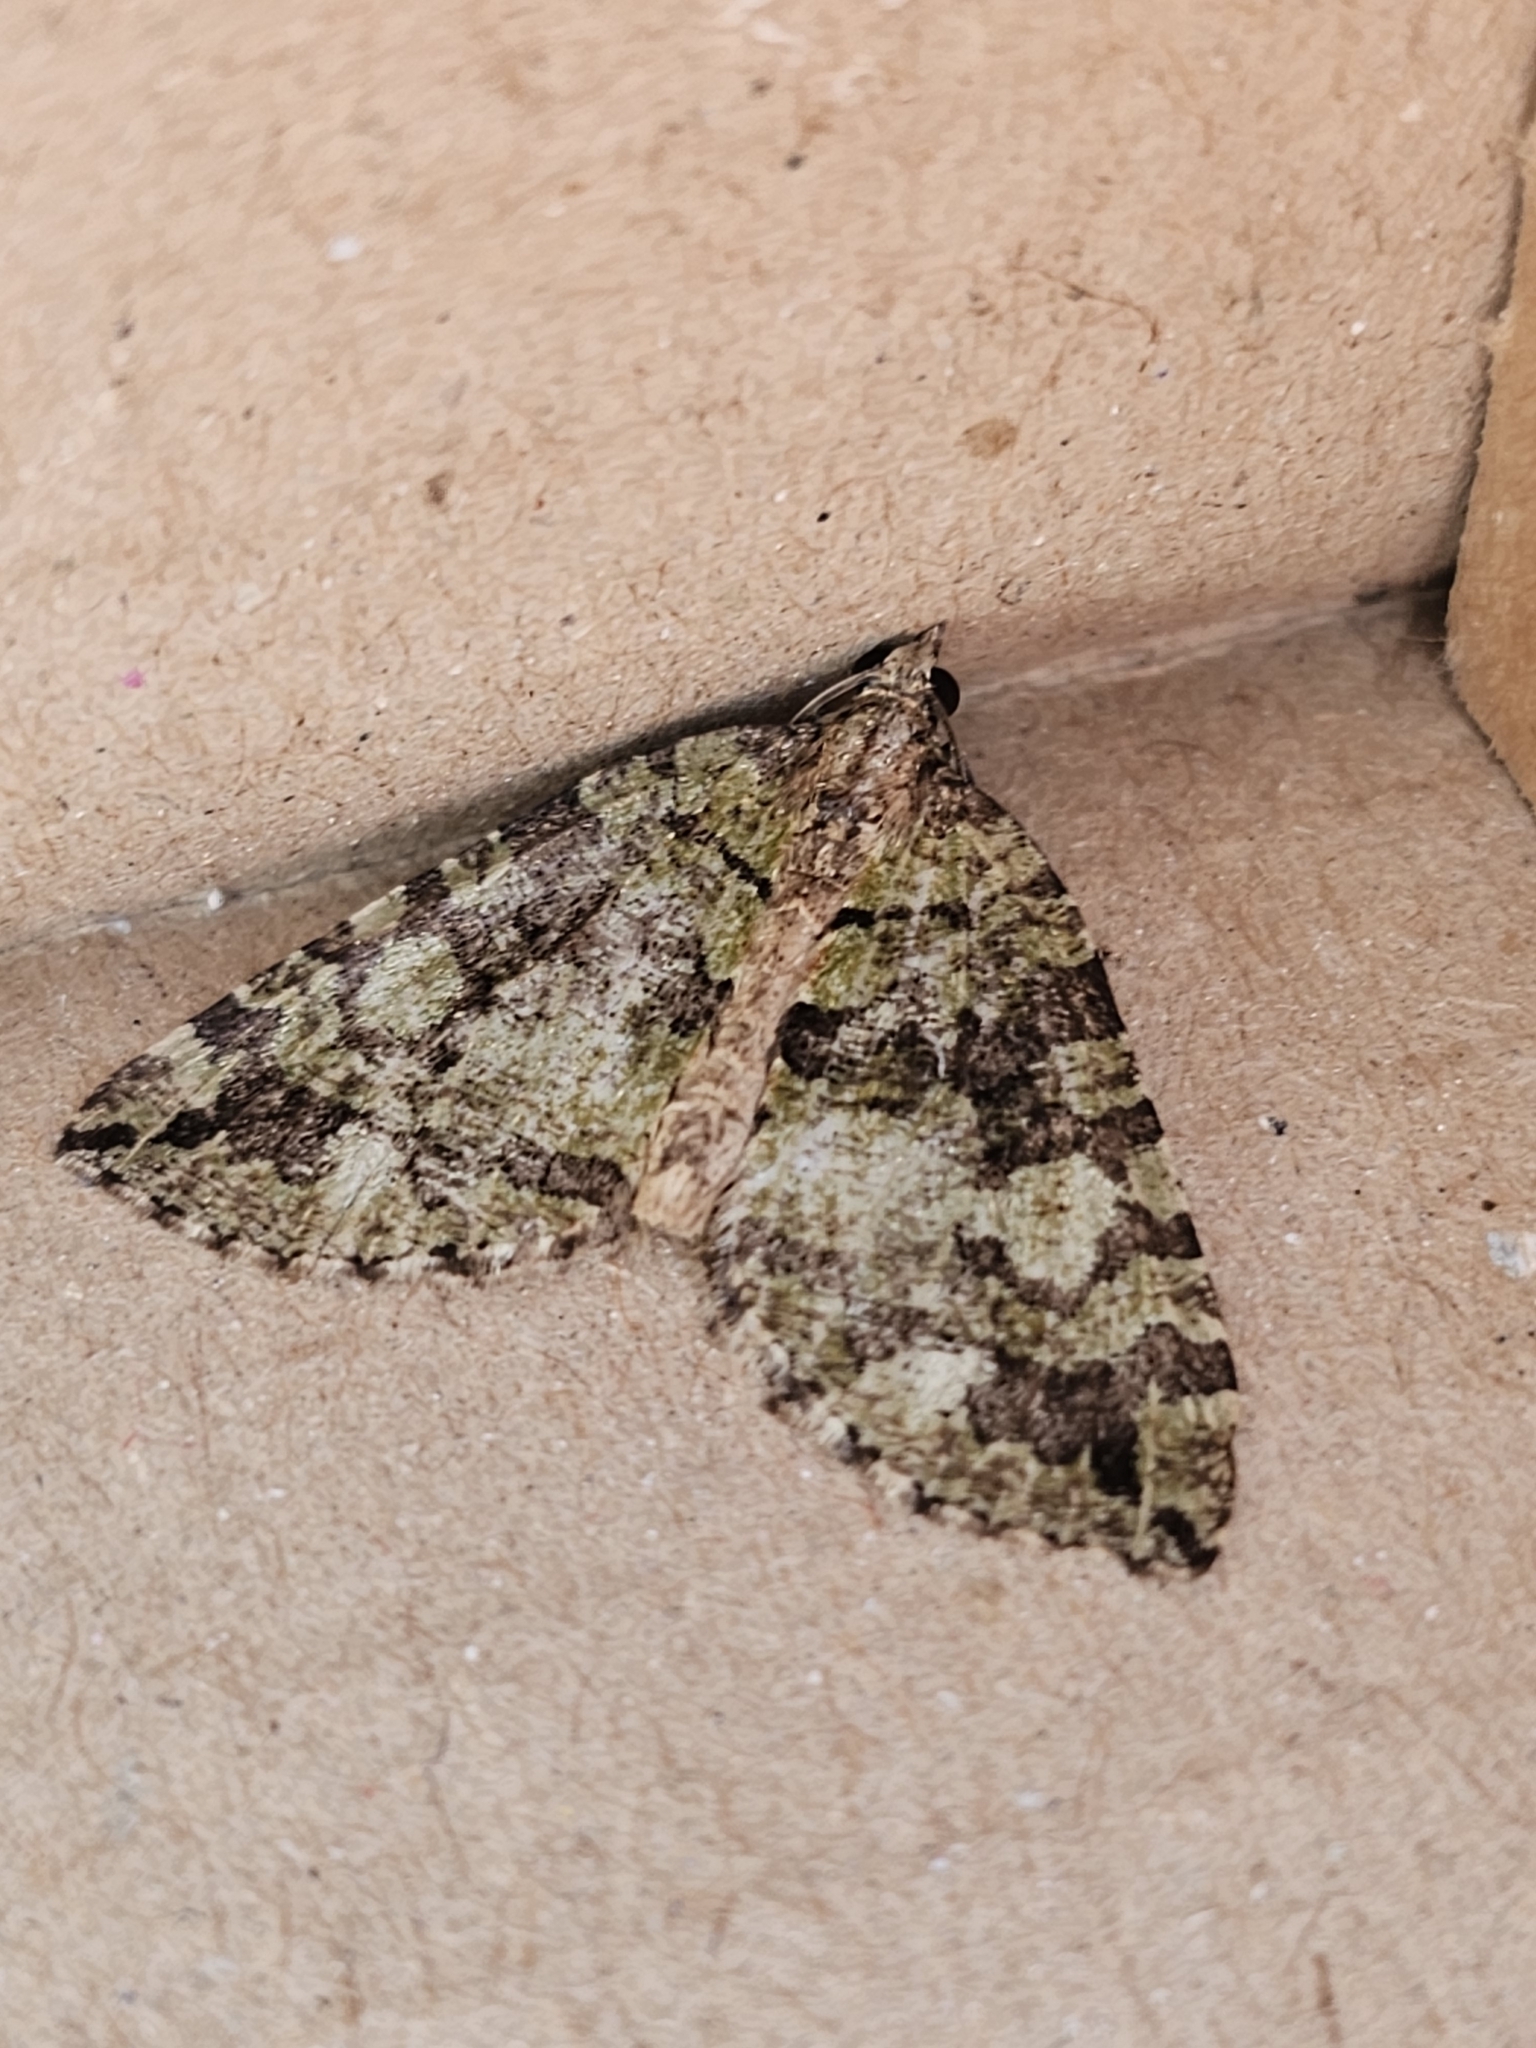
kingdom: Animalia
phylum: Arthropoda
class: Insecta
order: Lepidoptera
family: Geometridae
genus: Hydriomena
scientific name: Hydriomena furcata
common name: July highflyer
